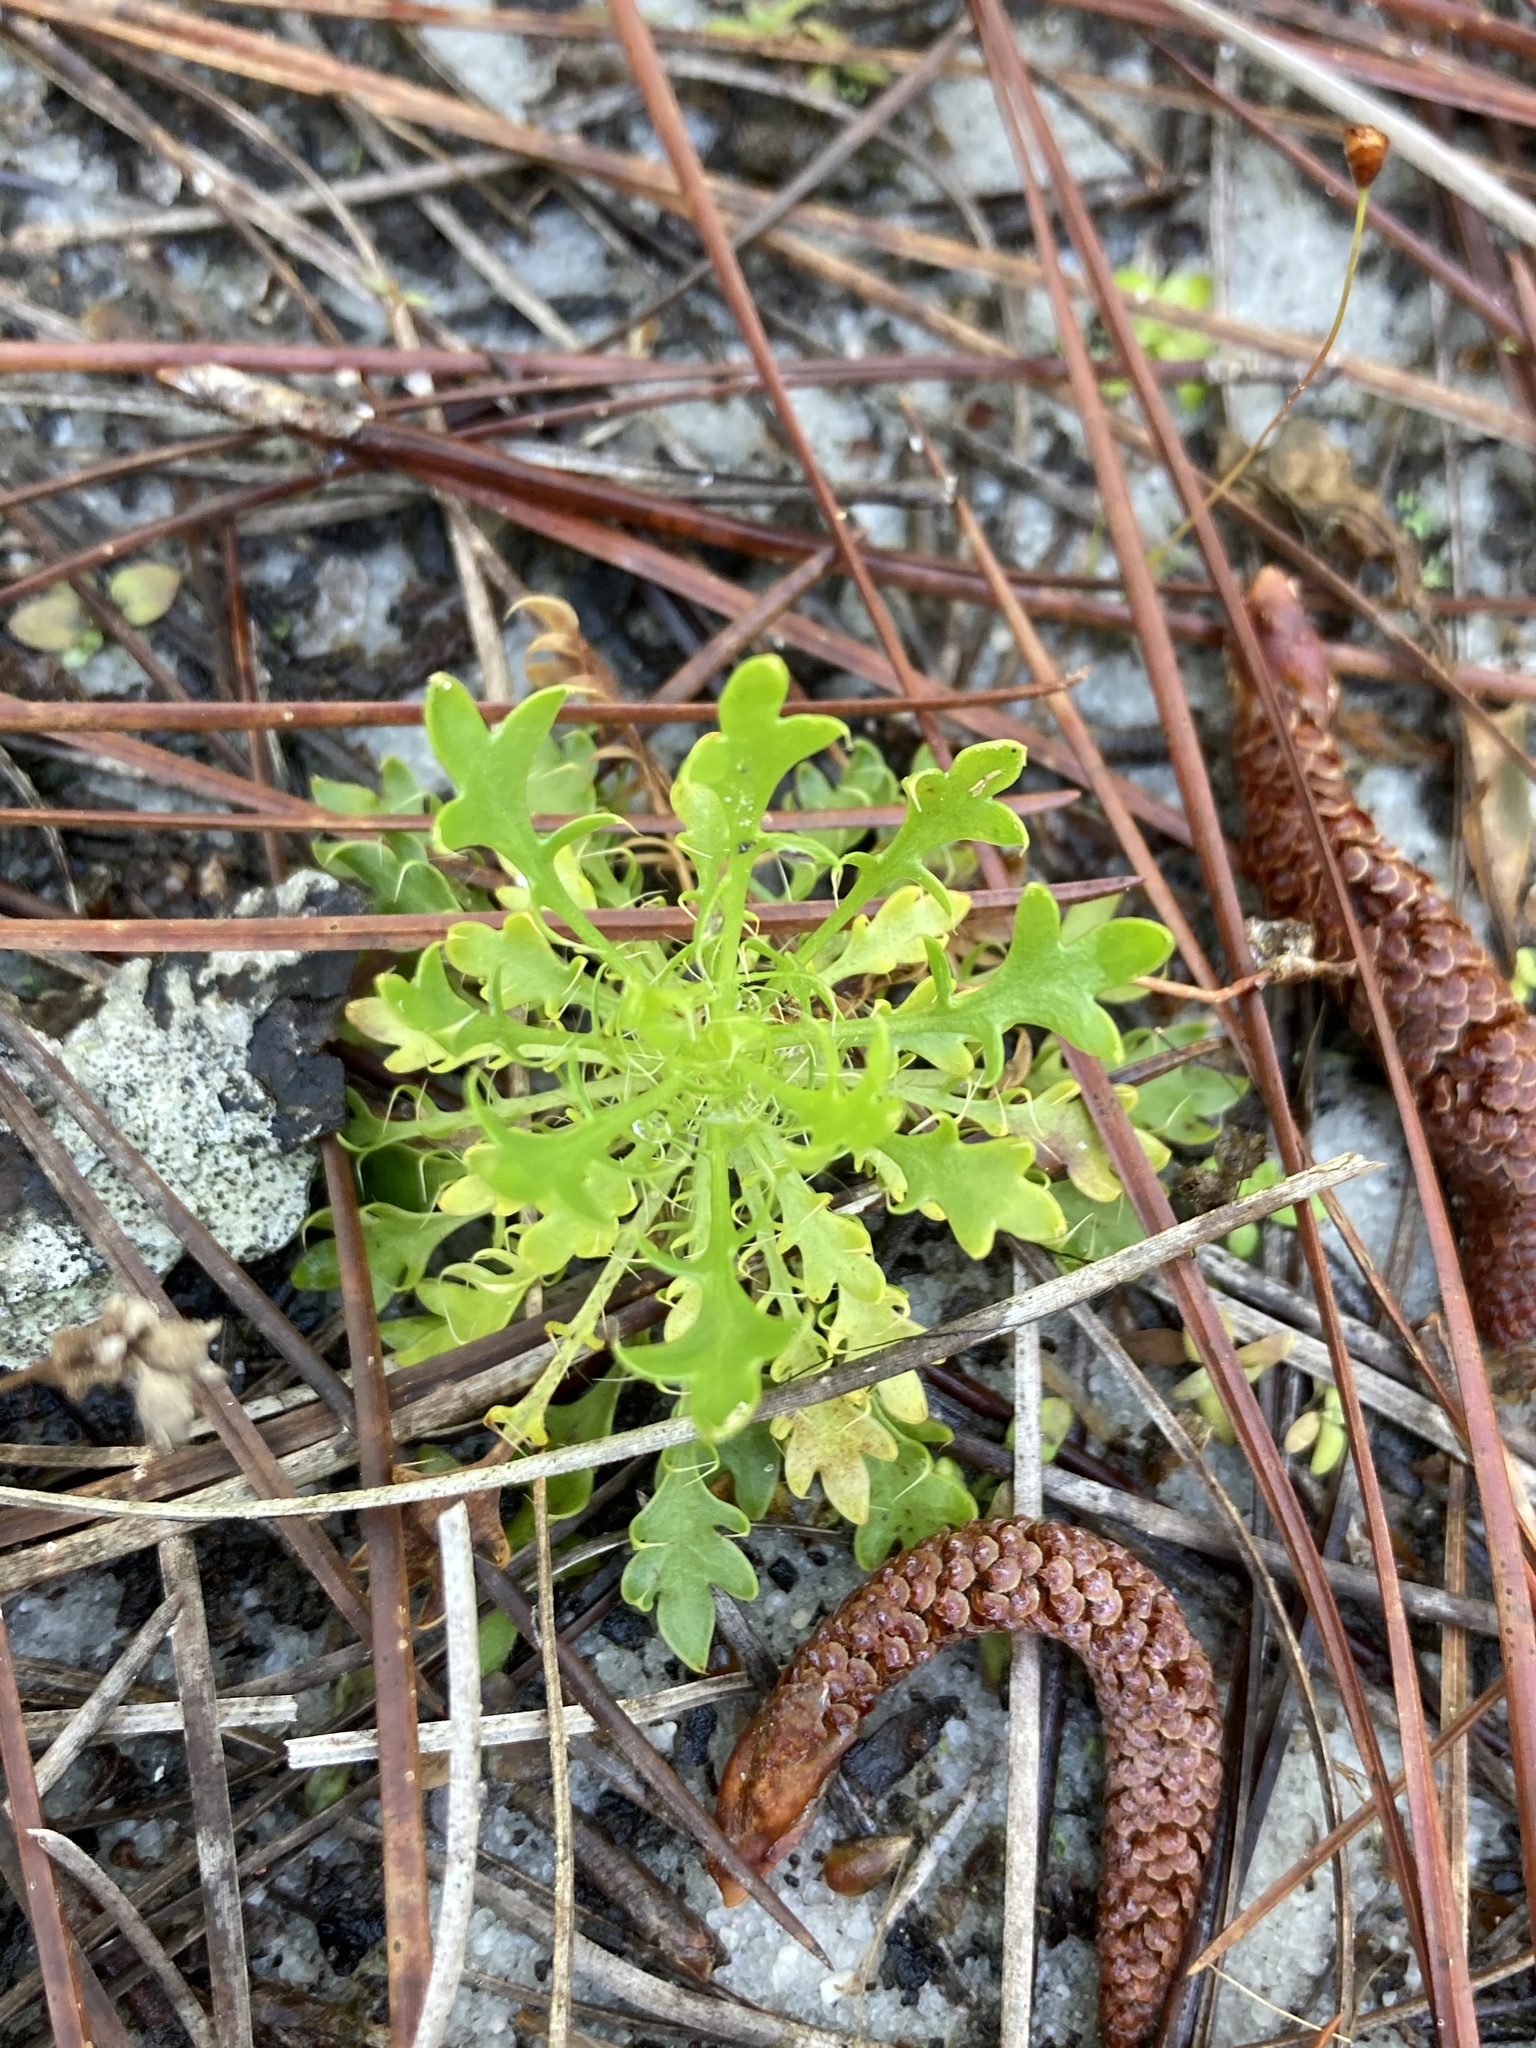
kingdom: Plantae
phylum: Tracheophyta
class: Magnoliopsida
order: Apiales
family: Apiaceae
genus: Eryngium
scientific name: Eryngium aromaticum
